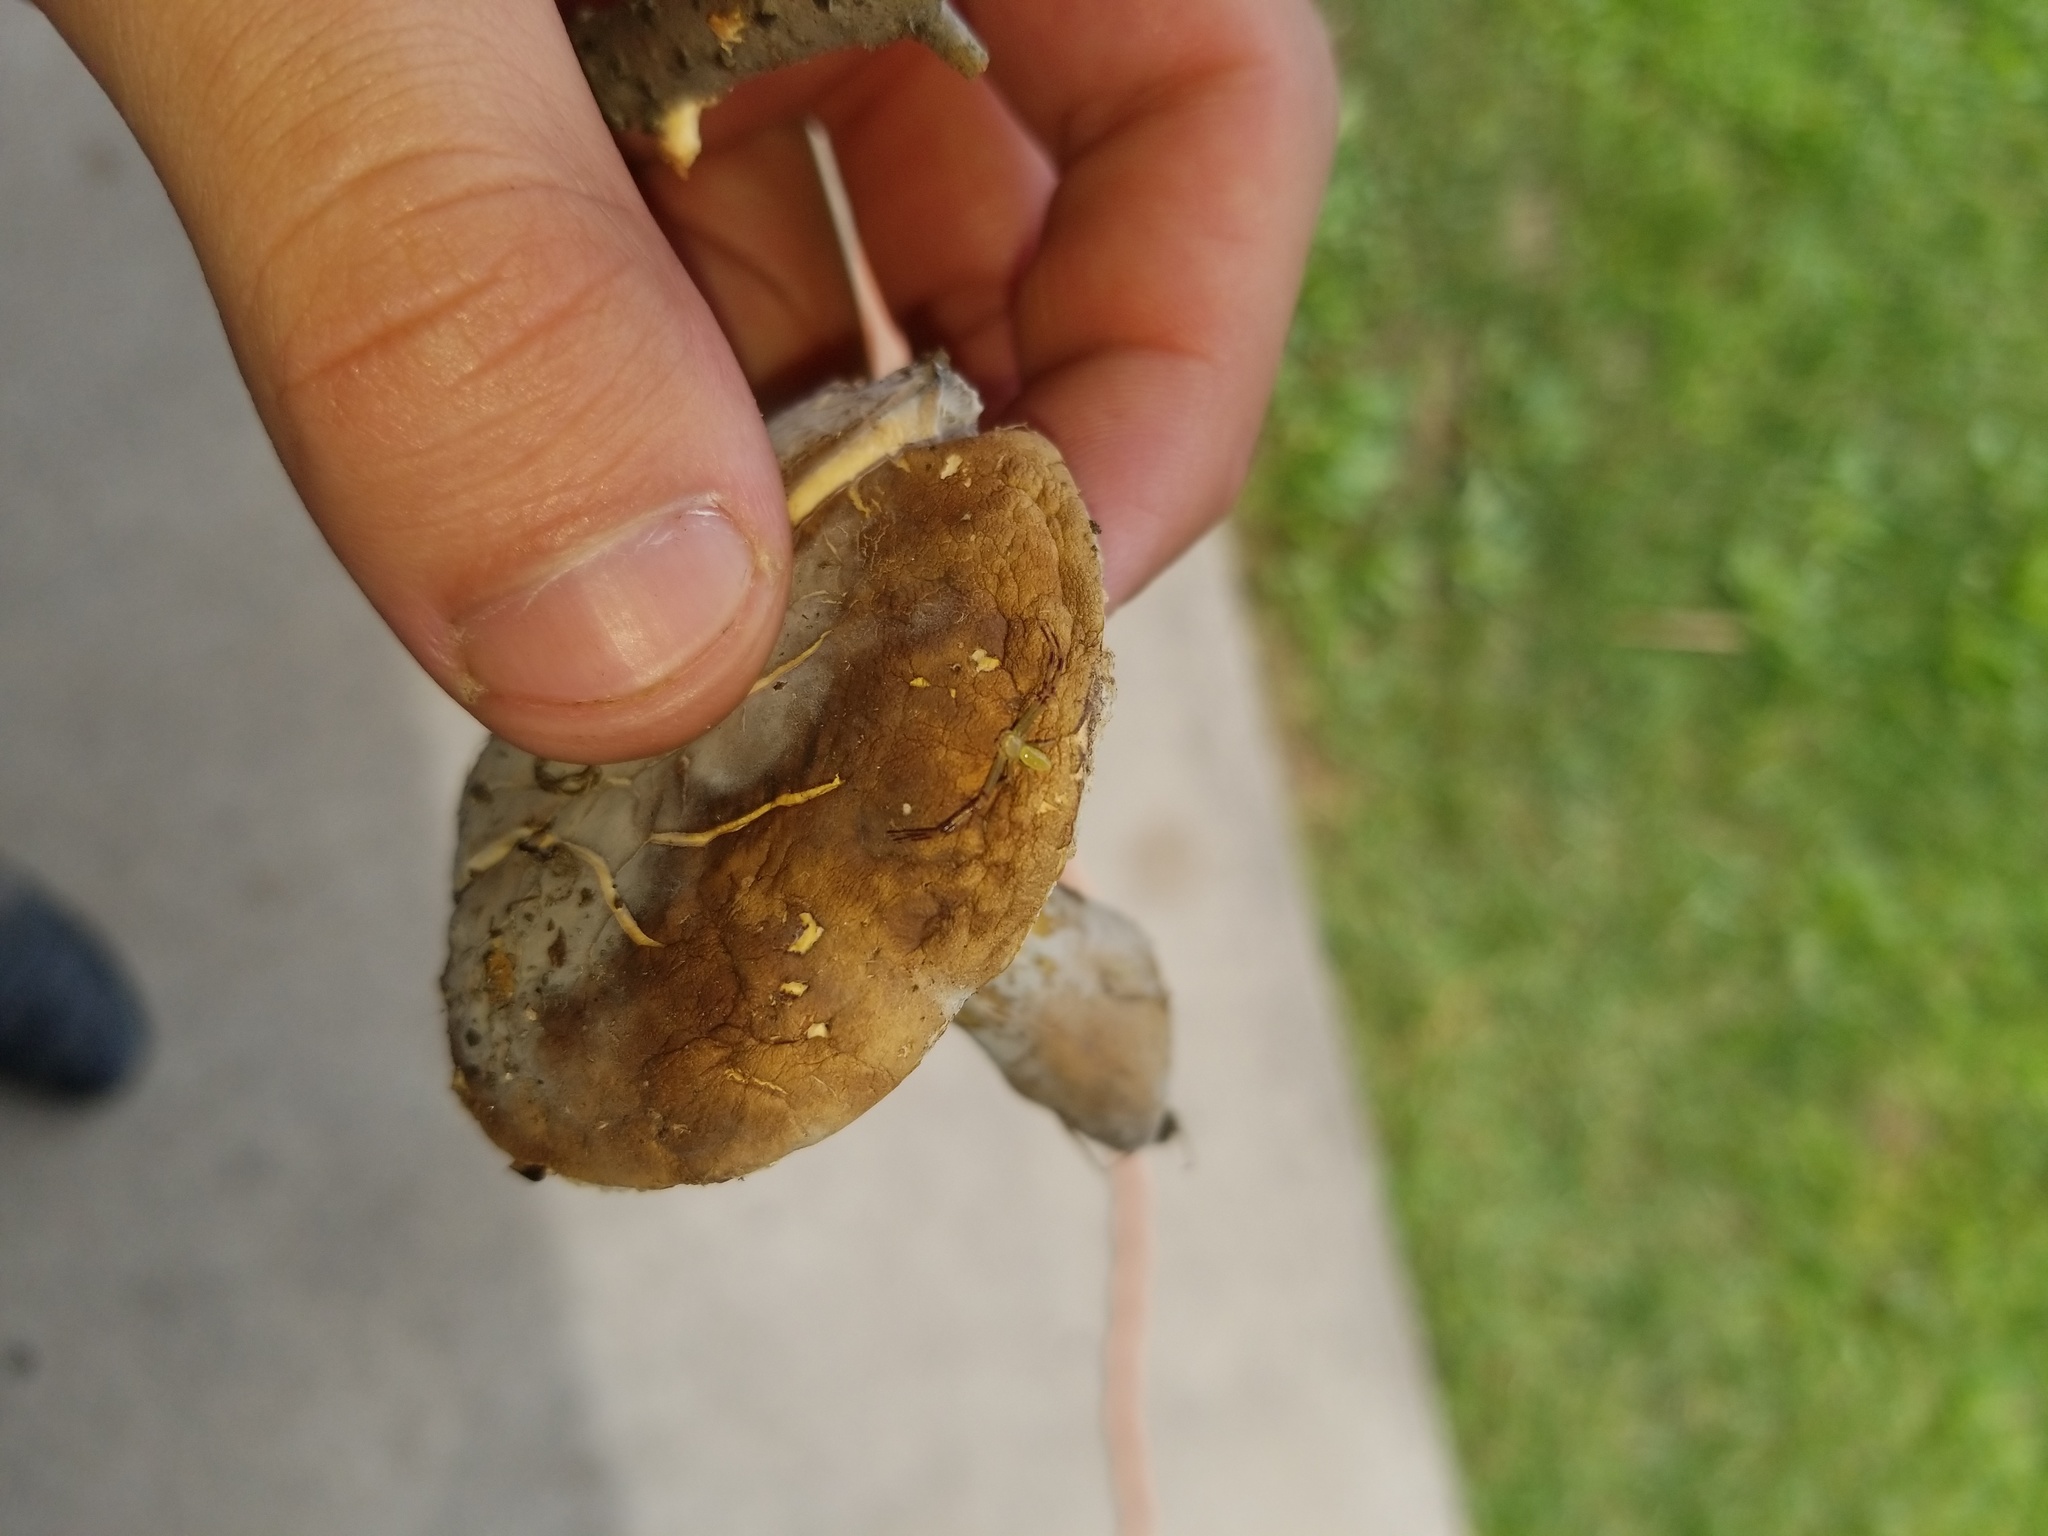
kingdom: Fungi
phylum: Ascomycota
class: Sordariomycetes
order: Hypocreales
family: Hypocreaceae
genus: Hypomyces
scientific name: Hypomyces chlorinus
